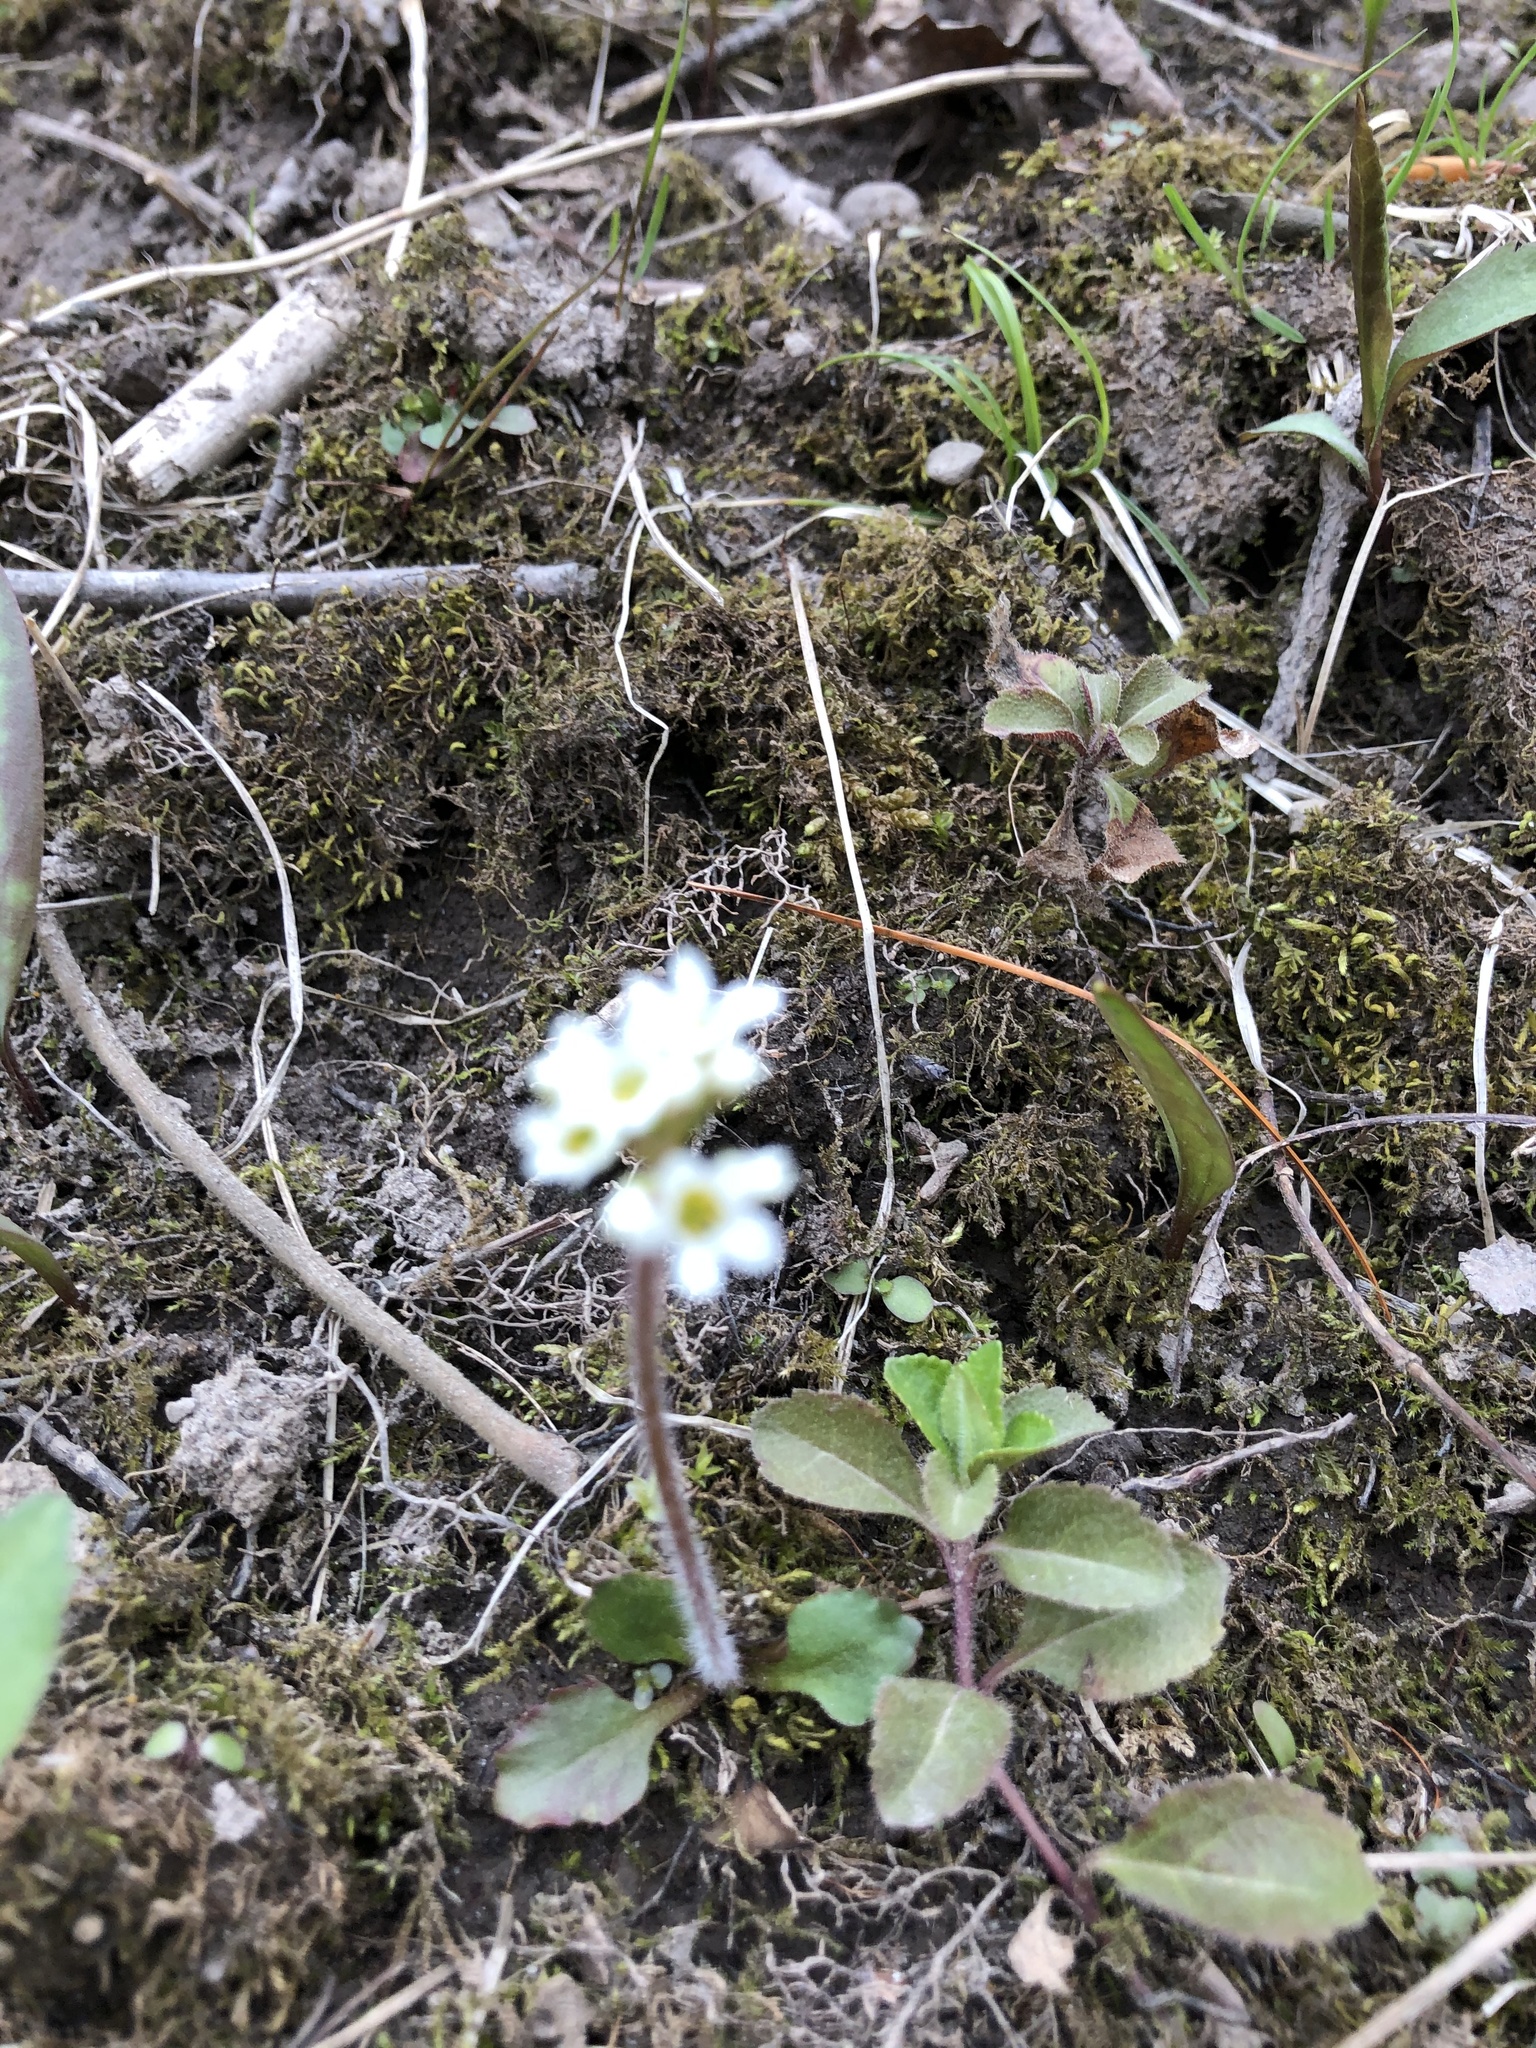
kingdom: Plantae
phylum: Tracheophyta
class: Magnoliopsida
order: Saxifragales
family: Saxifragaceae
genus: Micranthes
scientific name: Micranthes virginiensis
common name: Early saxifrage
